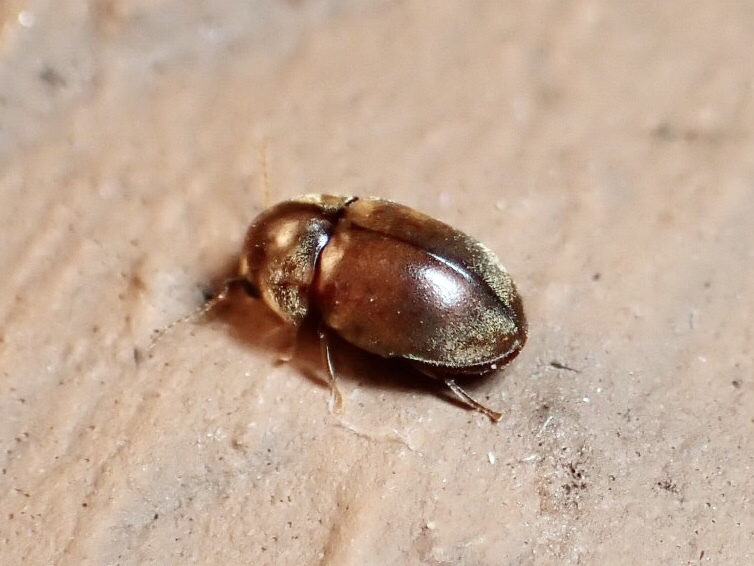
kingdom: Animalia
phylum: Arthropoda
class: Insecta
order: Coleoptera
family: Anobiidae
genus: Mesocoelopus
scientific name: Mesocoelopus collaris
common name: Wood-boring beetle
